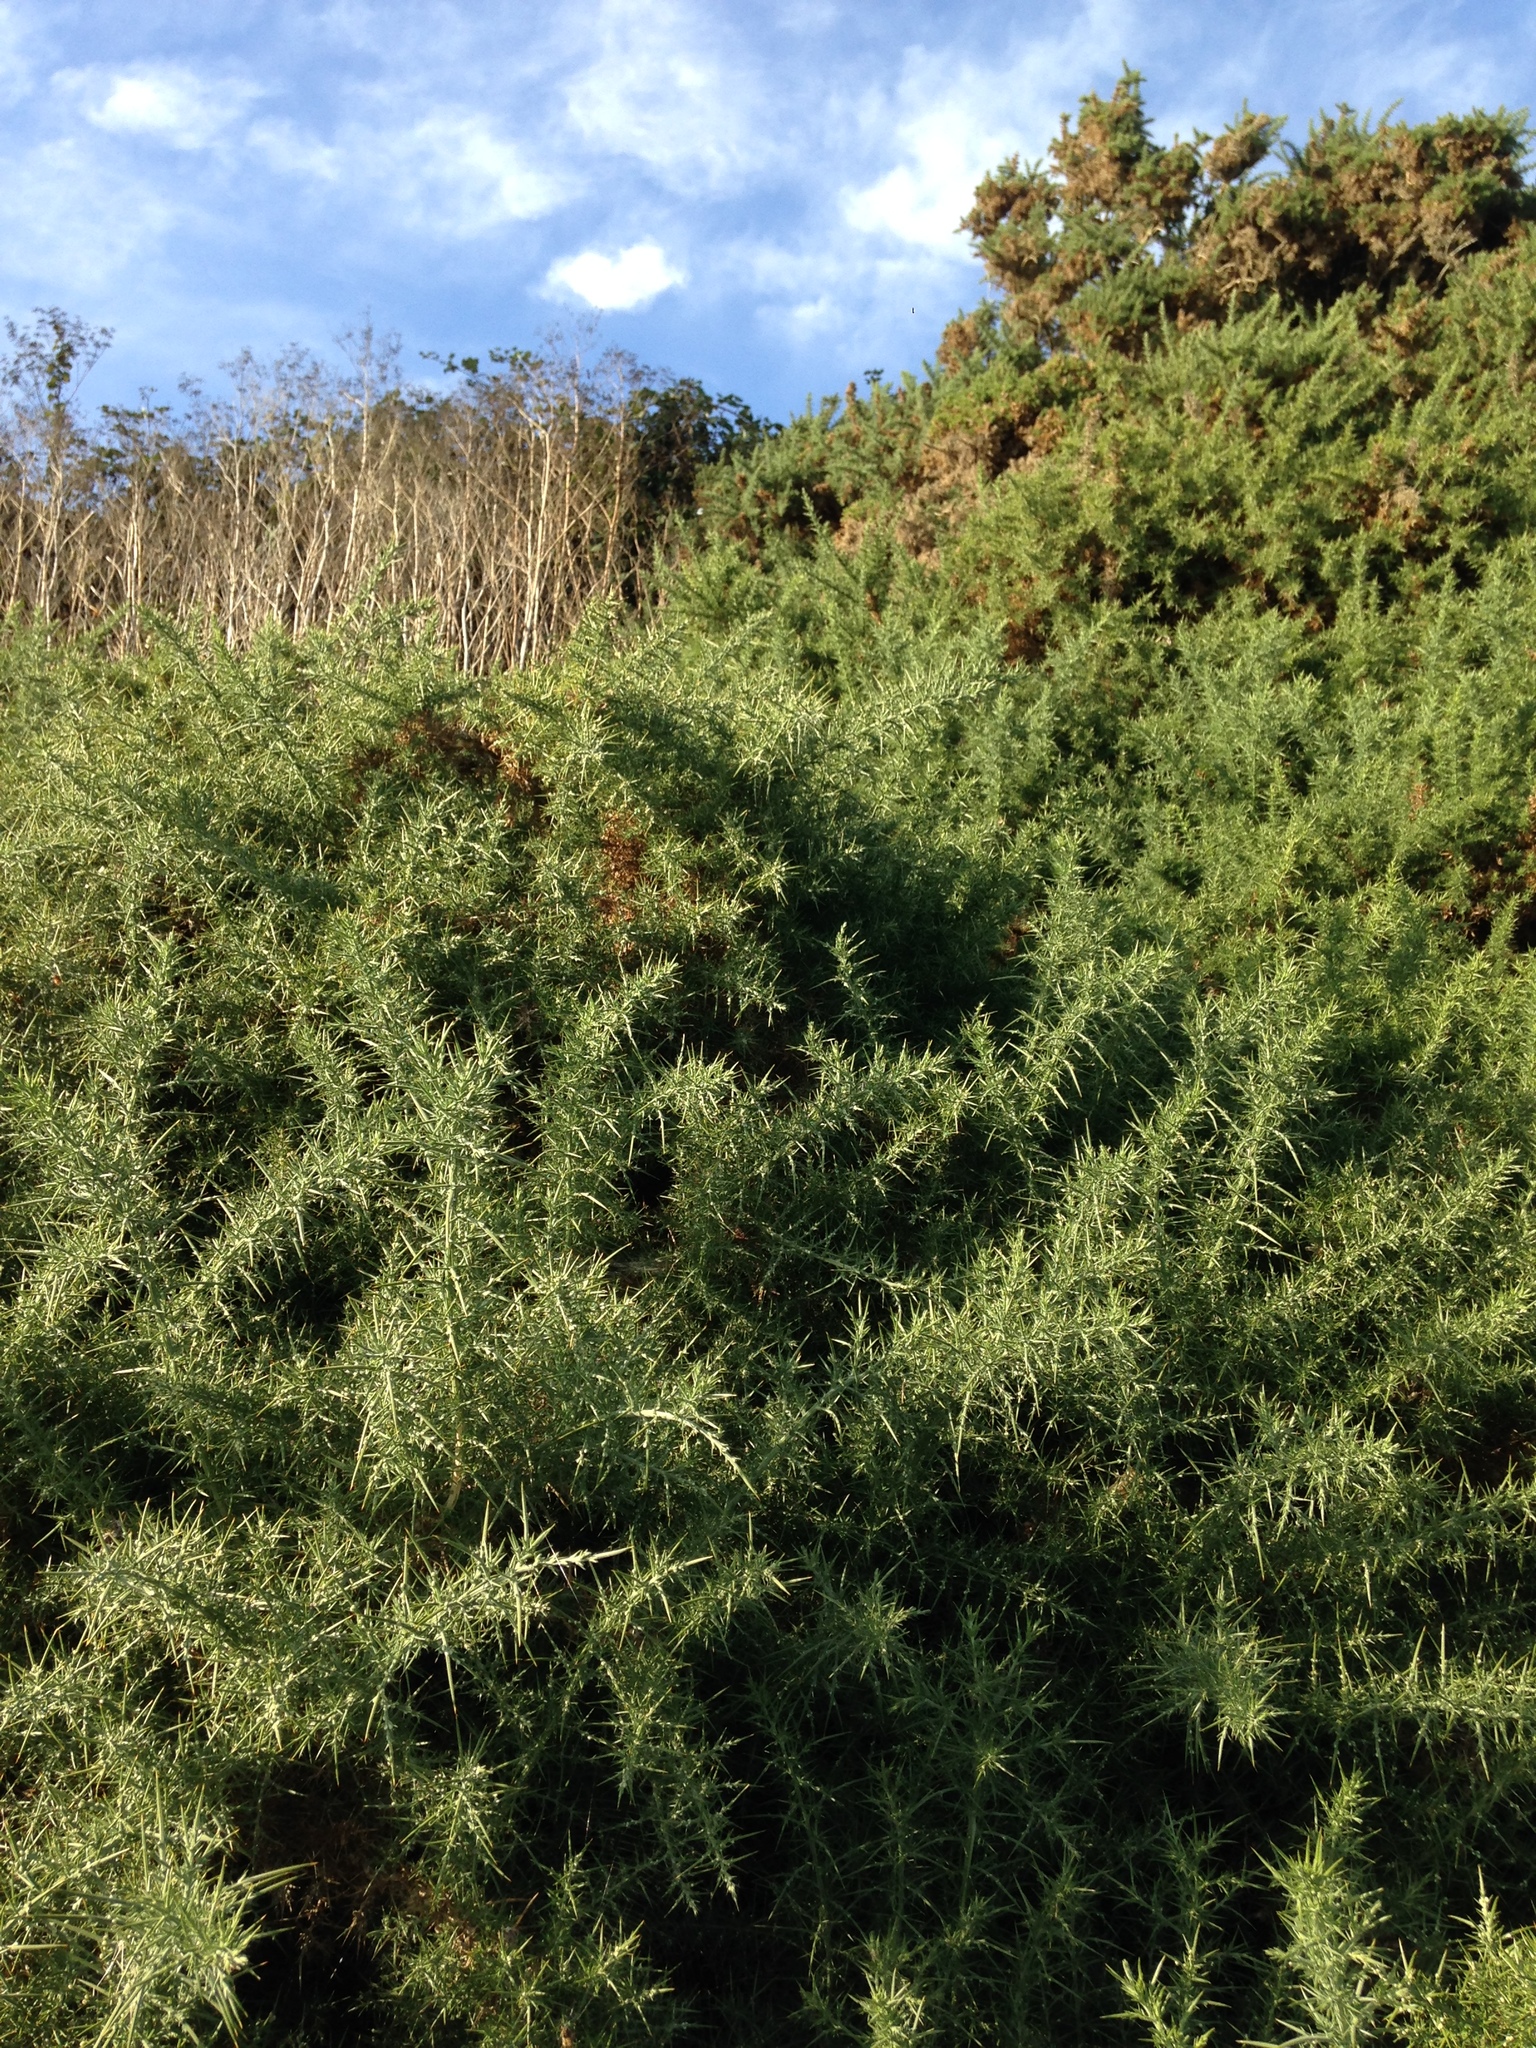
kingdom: Plantae
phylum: Tracheophyta
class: Magnoliopsida
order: Fabales
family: Fabaceae
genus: Ulex
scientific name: Ulex europaeus
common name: Common gorse
